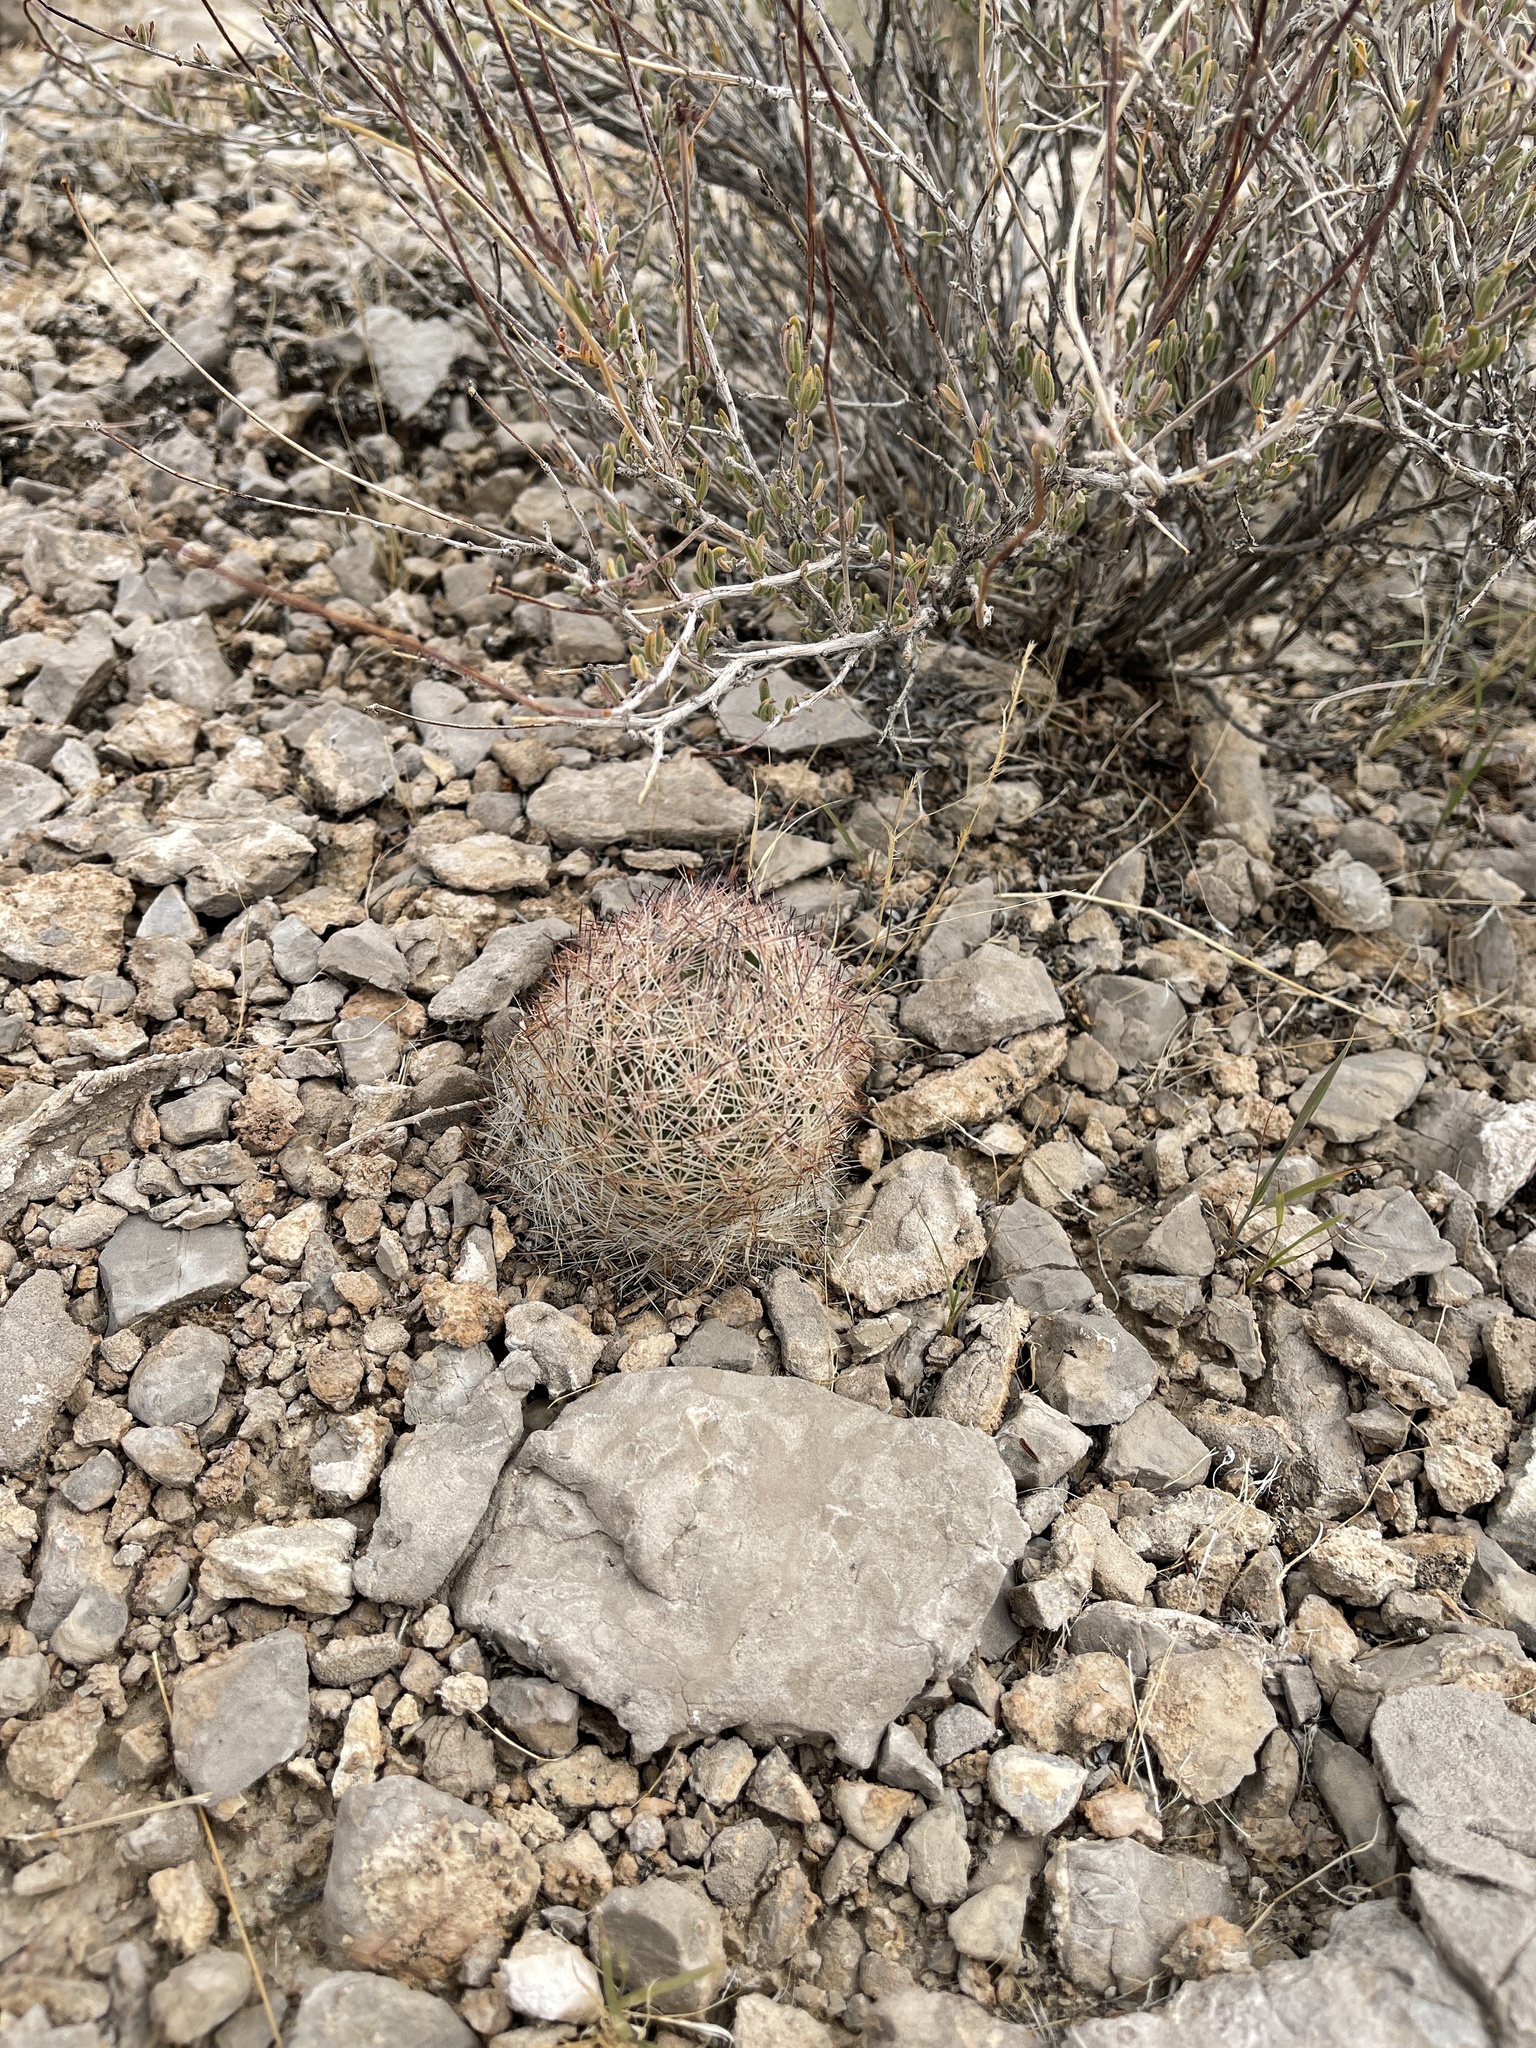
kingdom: Plantae
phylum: Tracheophyta
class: Magnoliopsida
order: Caryophyllales
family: Cactaceae
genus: Pelecyphora
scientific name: Pelecyphora vivipara
